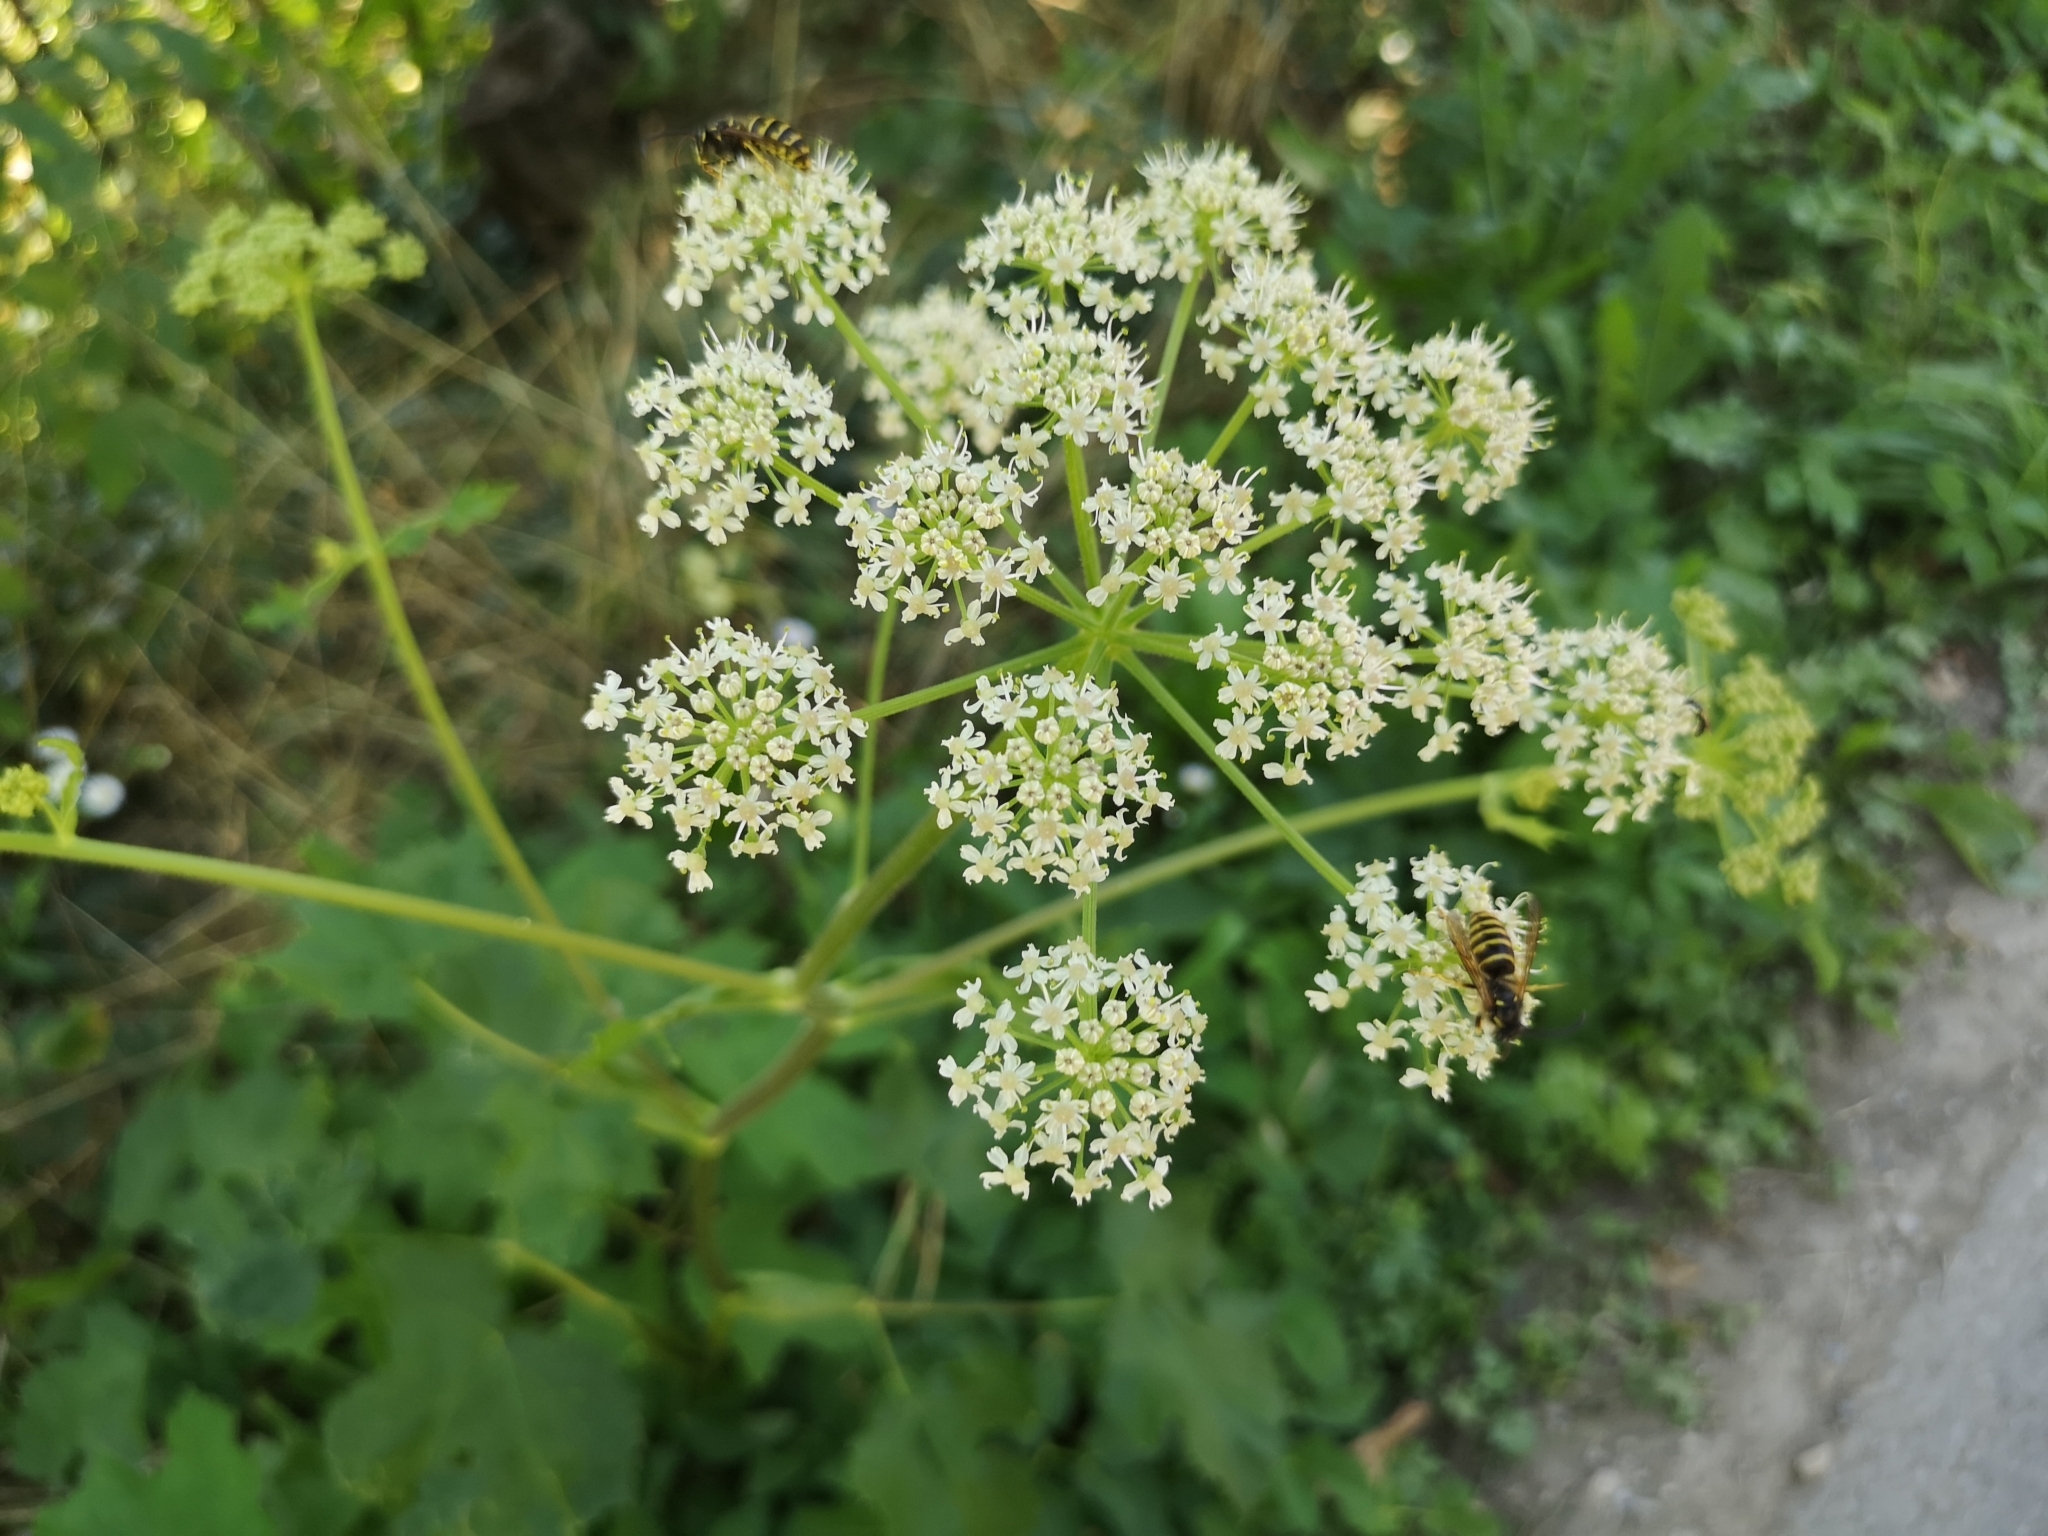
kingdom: Plantae
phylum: Tracheophyta
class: Magnoliopsida
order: Apiales
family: Apiaceae
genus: Heracleum
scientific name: Heracleum sphondylium
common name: Hogweed
